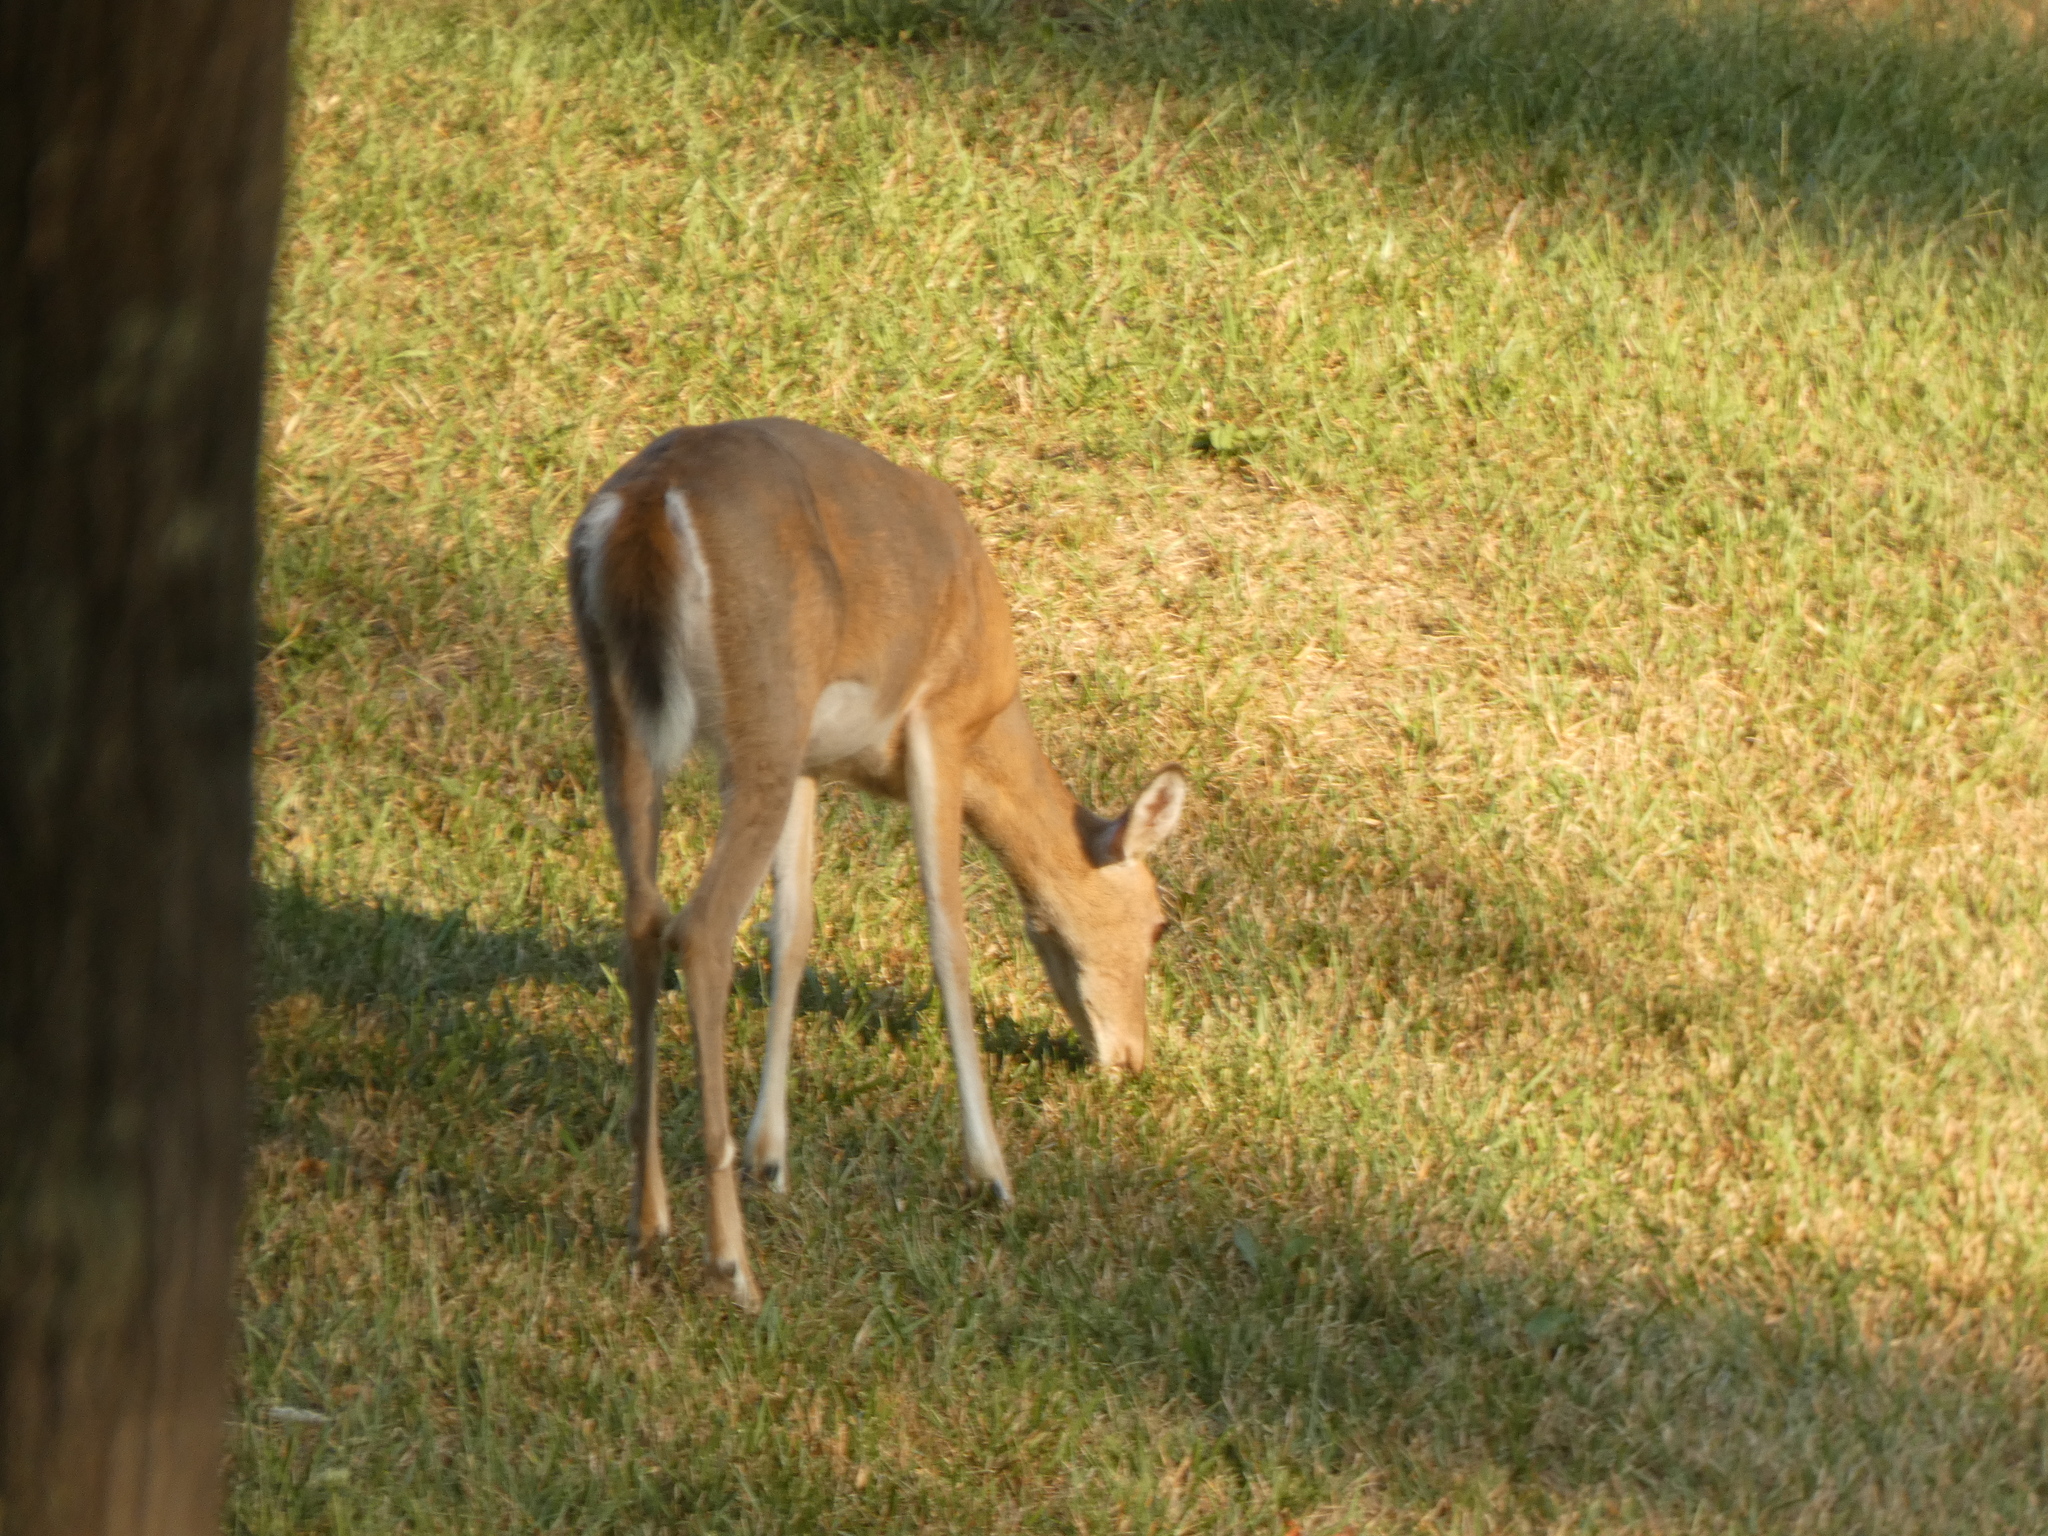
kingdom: Animalia
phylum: Chordata
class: Mammalia
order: Artiodactyla
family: Cervidae
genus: Odocoileus
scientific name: Odocoileus virginianus
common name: White-tailed deer
